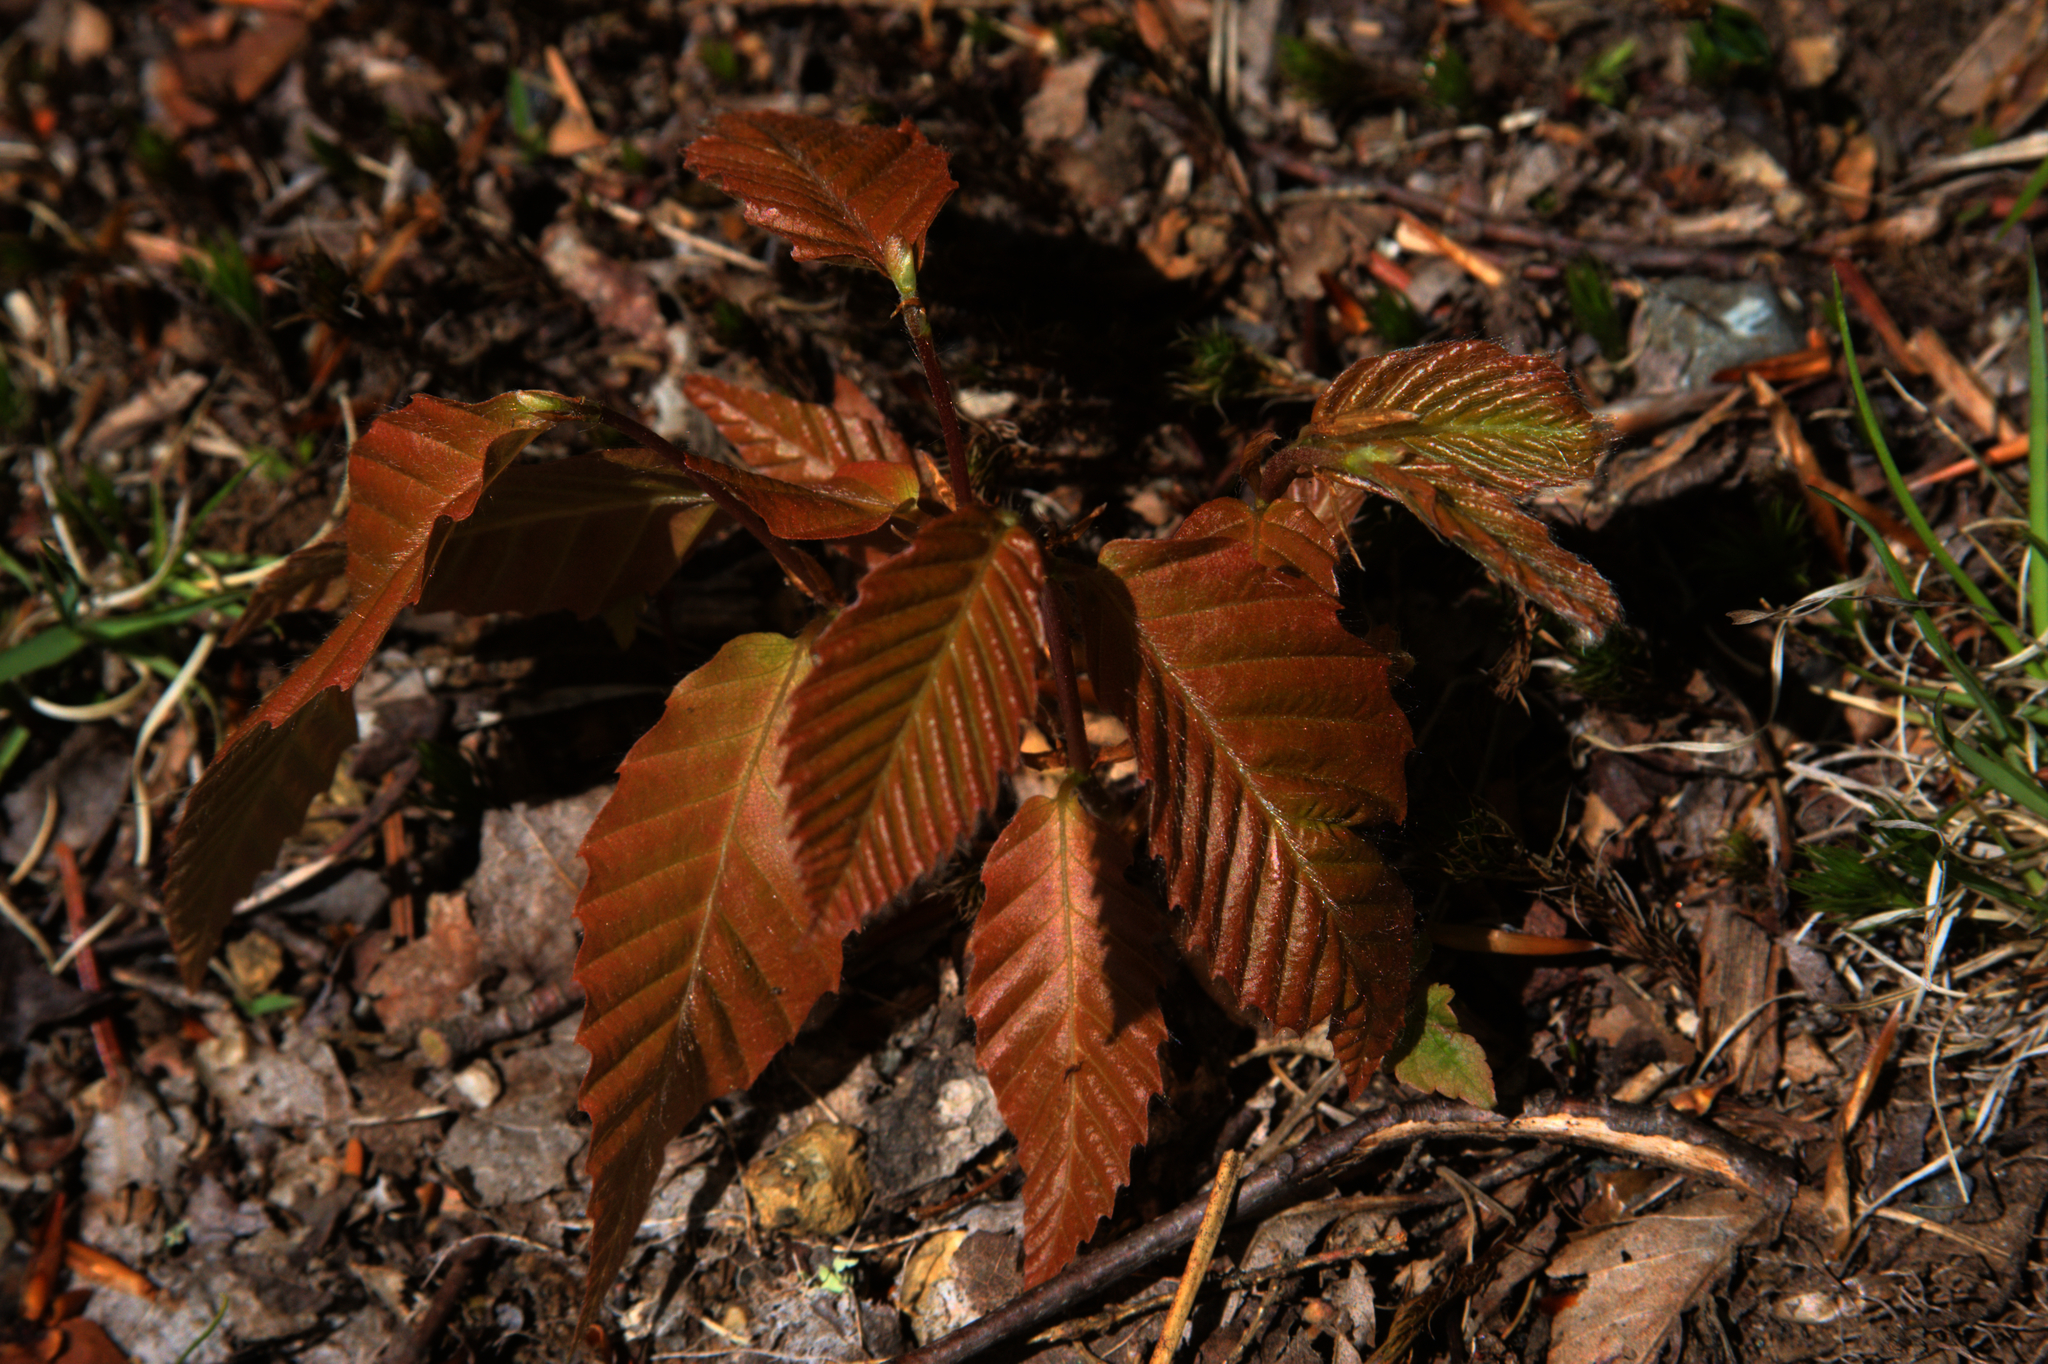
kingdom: Plantae
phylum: Tracheophyta
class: Magnoliopsida
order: Fagales
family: Fagaceae
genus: Fagus
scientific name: Fagus grandifolia
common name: American beech
